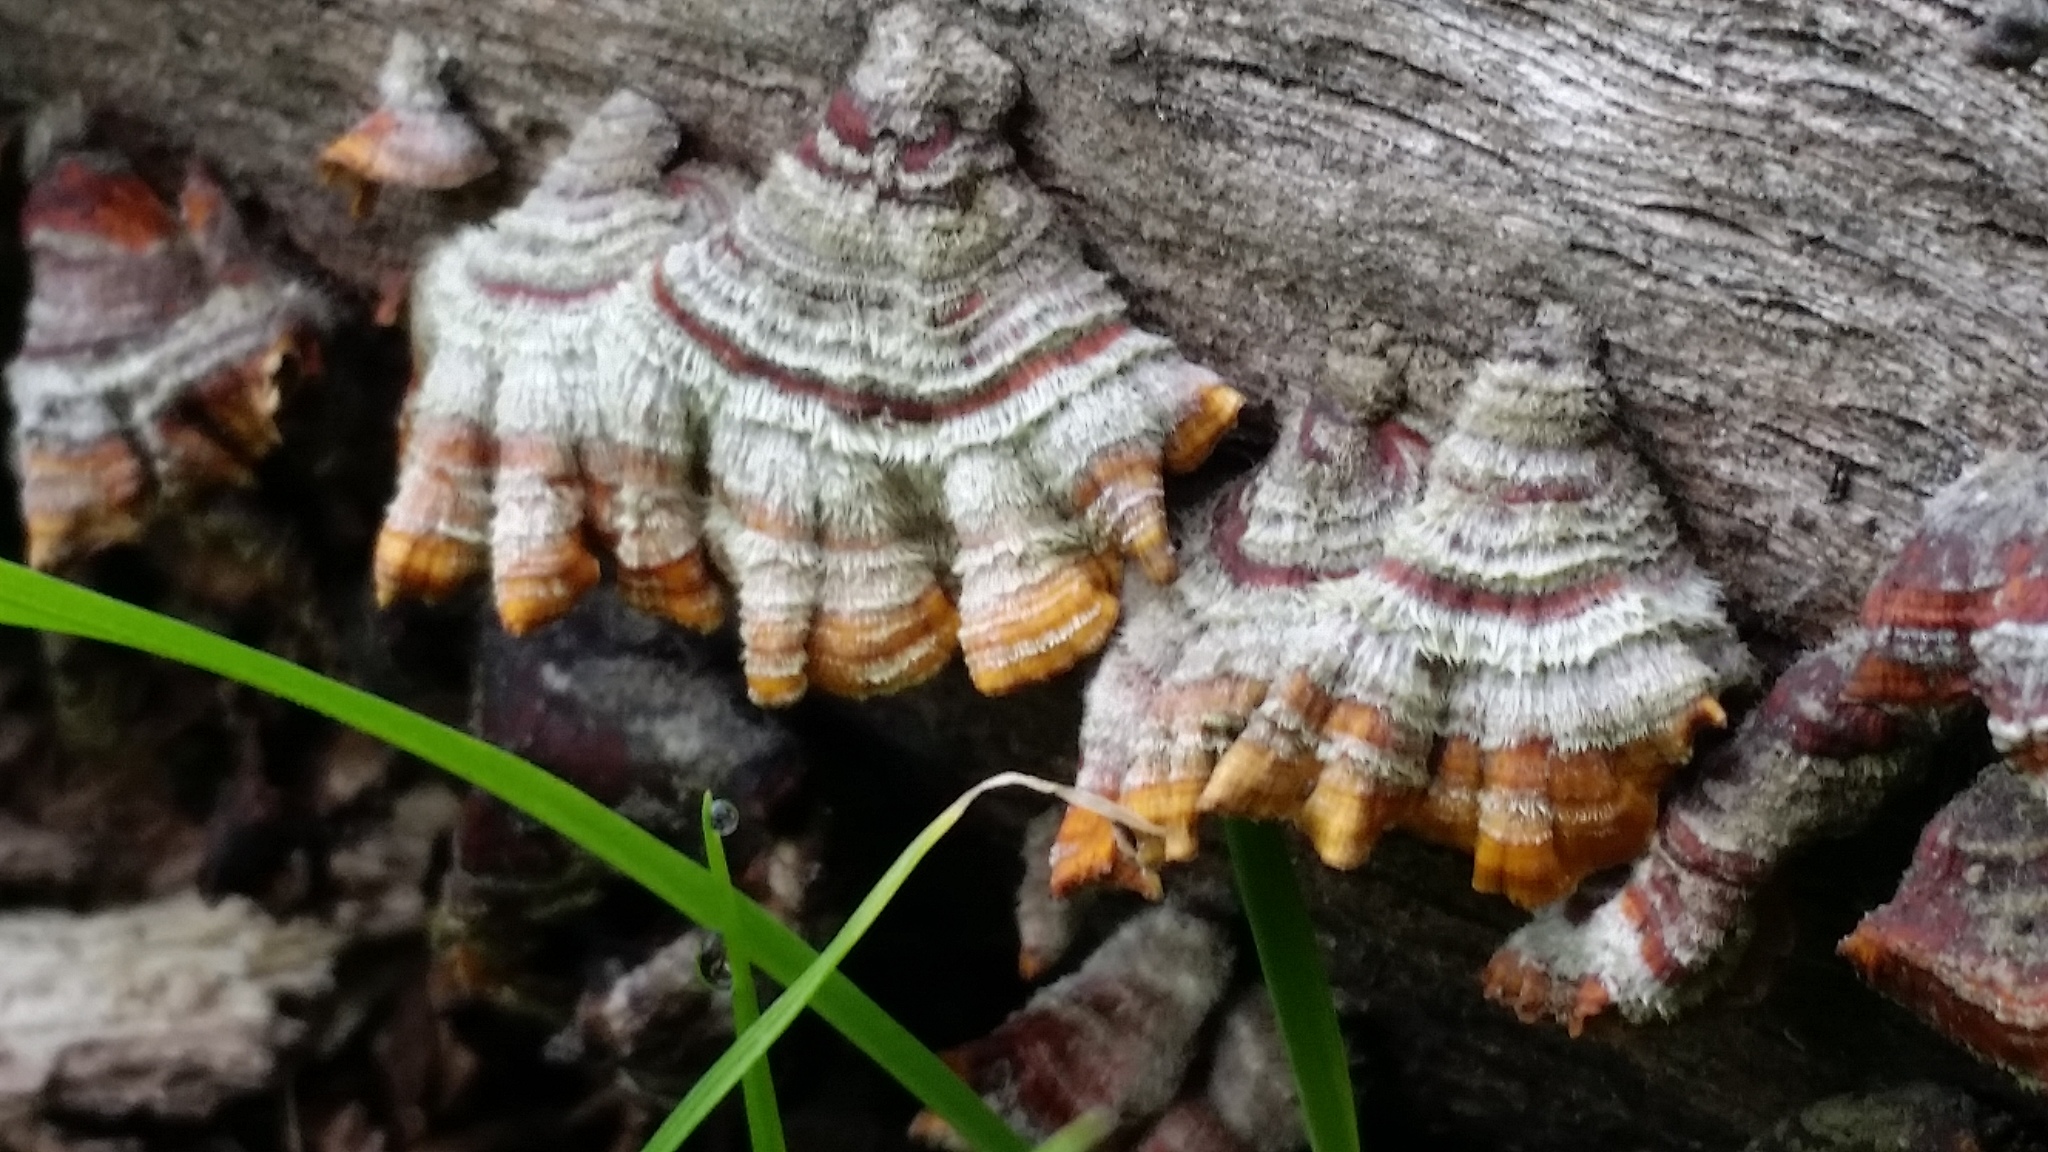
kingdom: Fungi
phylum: Basidiomycota
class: Agaricomycetes
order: Russulales
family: Stereaceae
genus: Stereum
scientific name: Stereum hirsutum
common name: Hairy curtain crust
